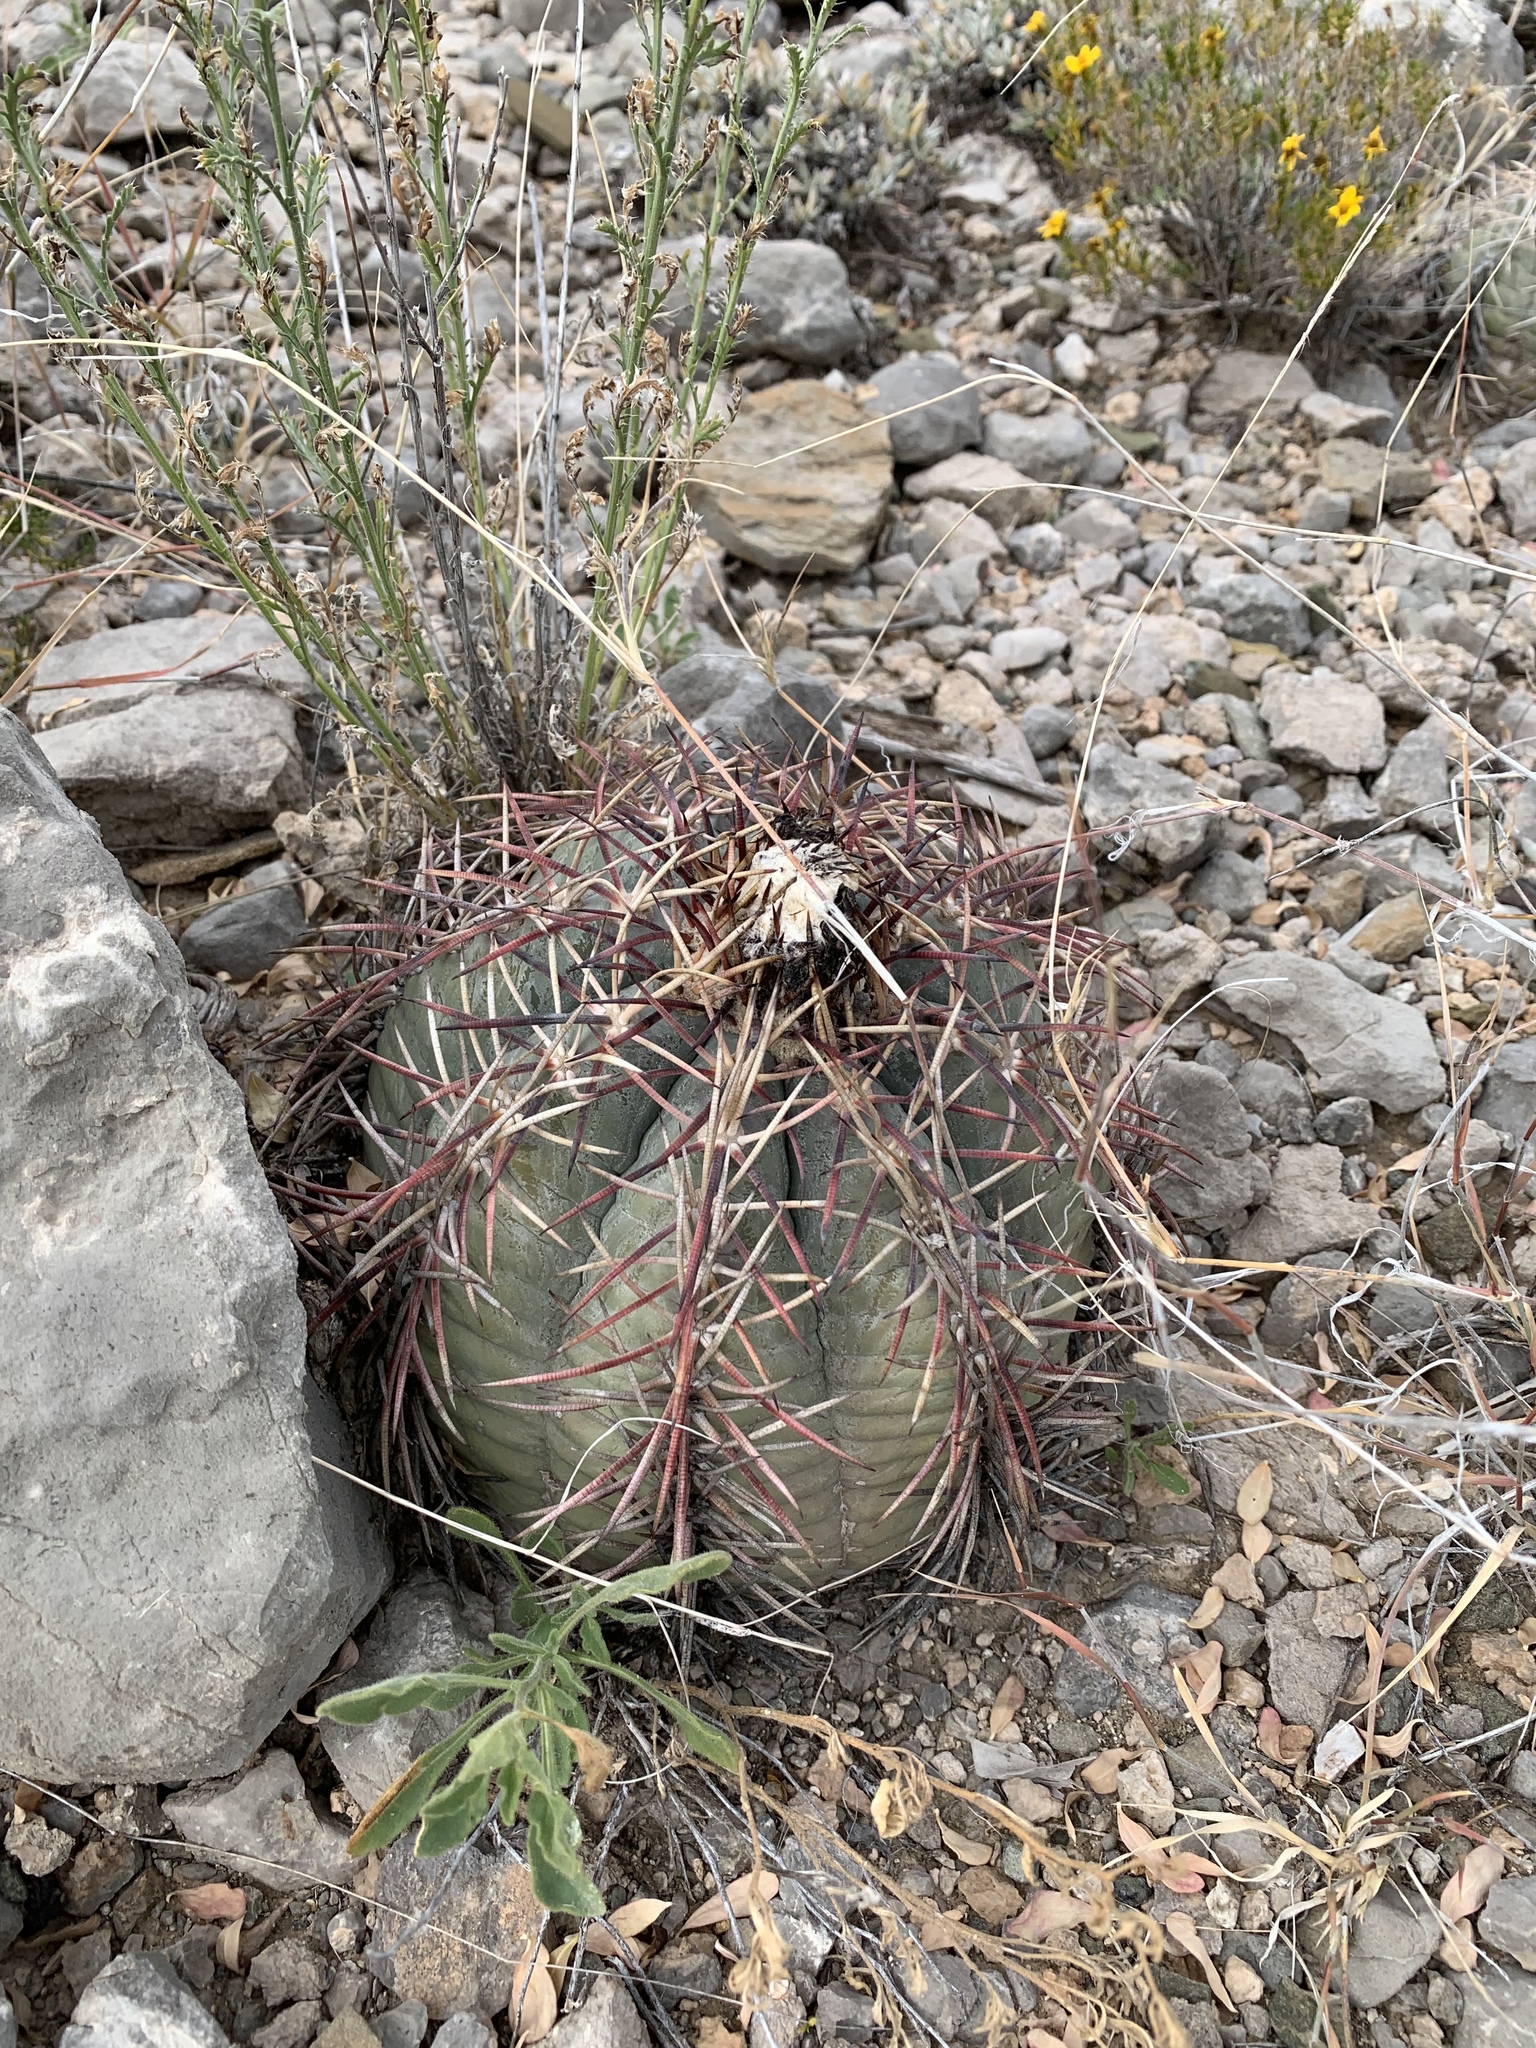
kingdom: Plantae
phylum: Tracheophyta
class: Magnoliopsida
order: Caryophyllales
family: Cactaceae
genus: Echinocactus
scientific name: Echinocactus horizonthalonius
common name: Devilshead
